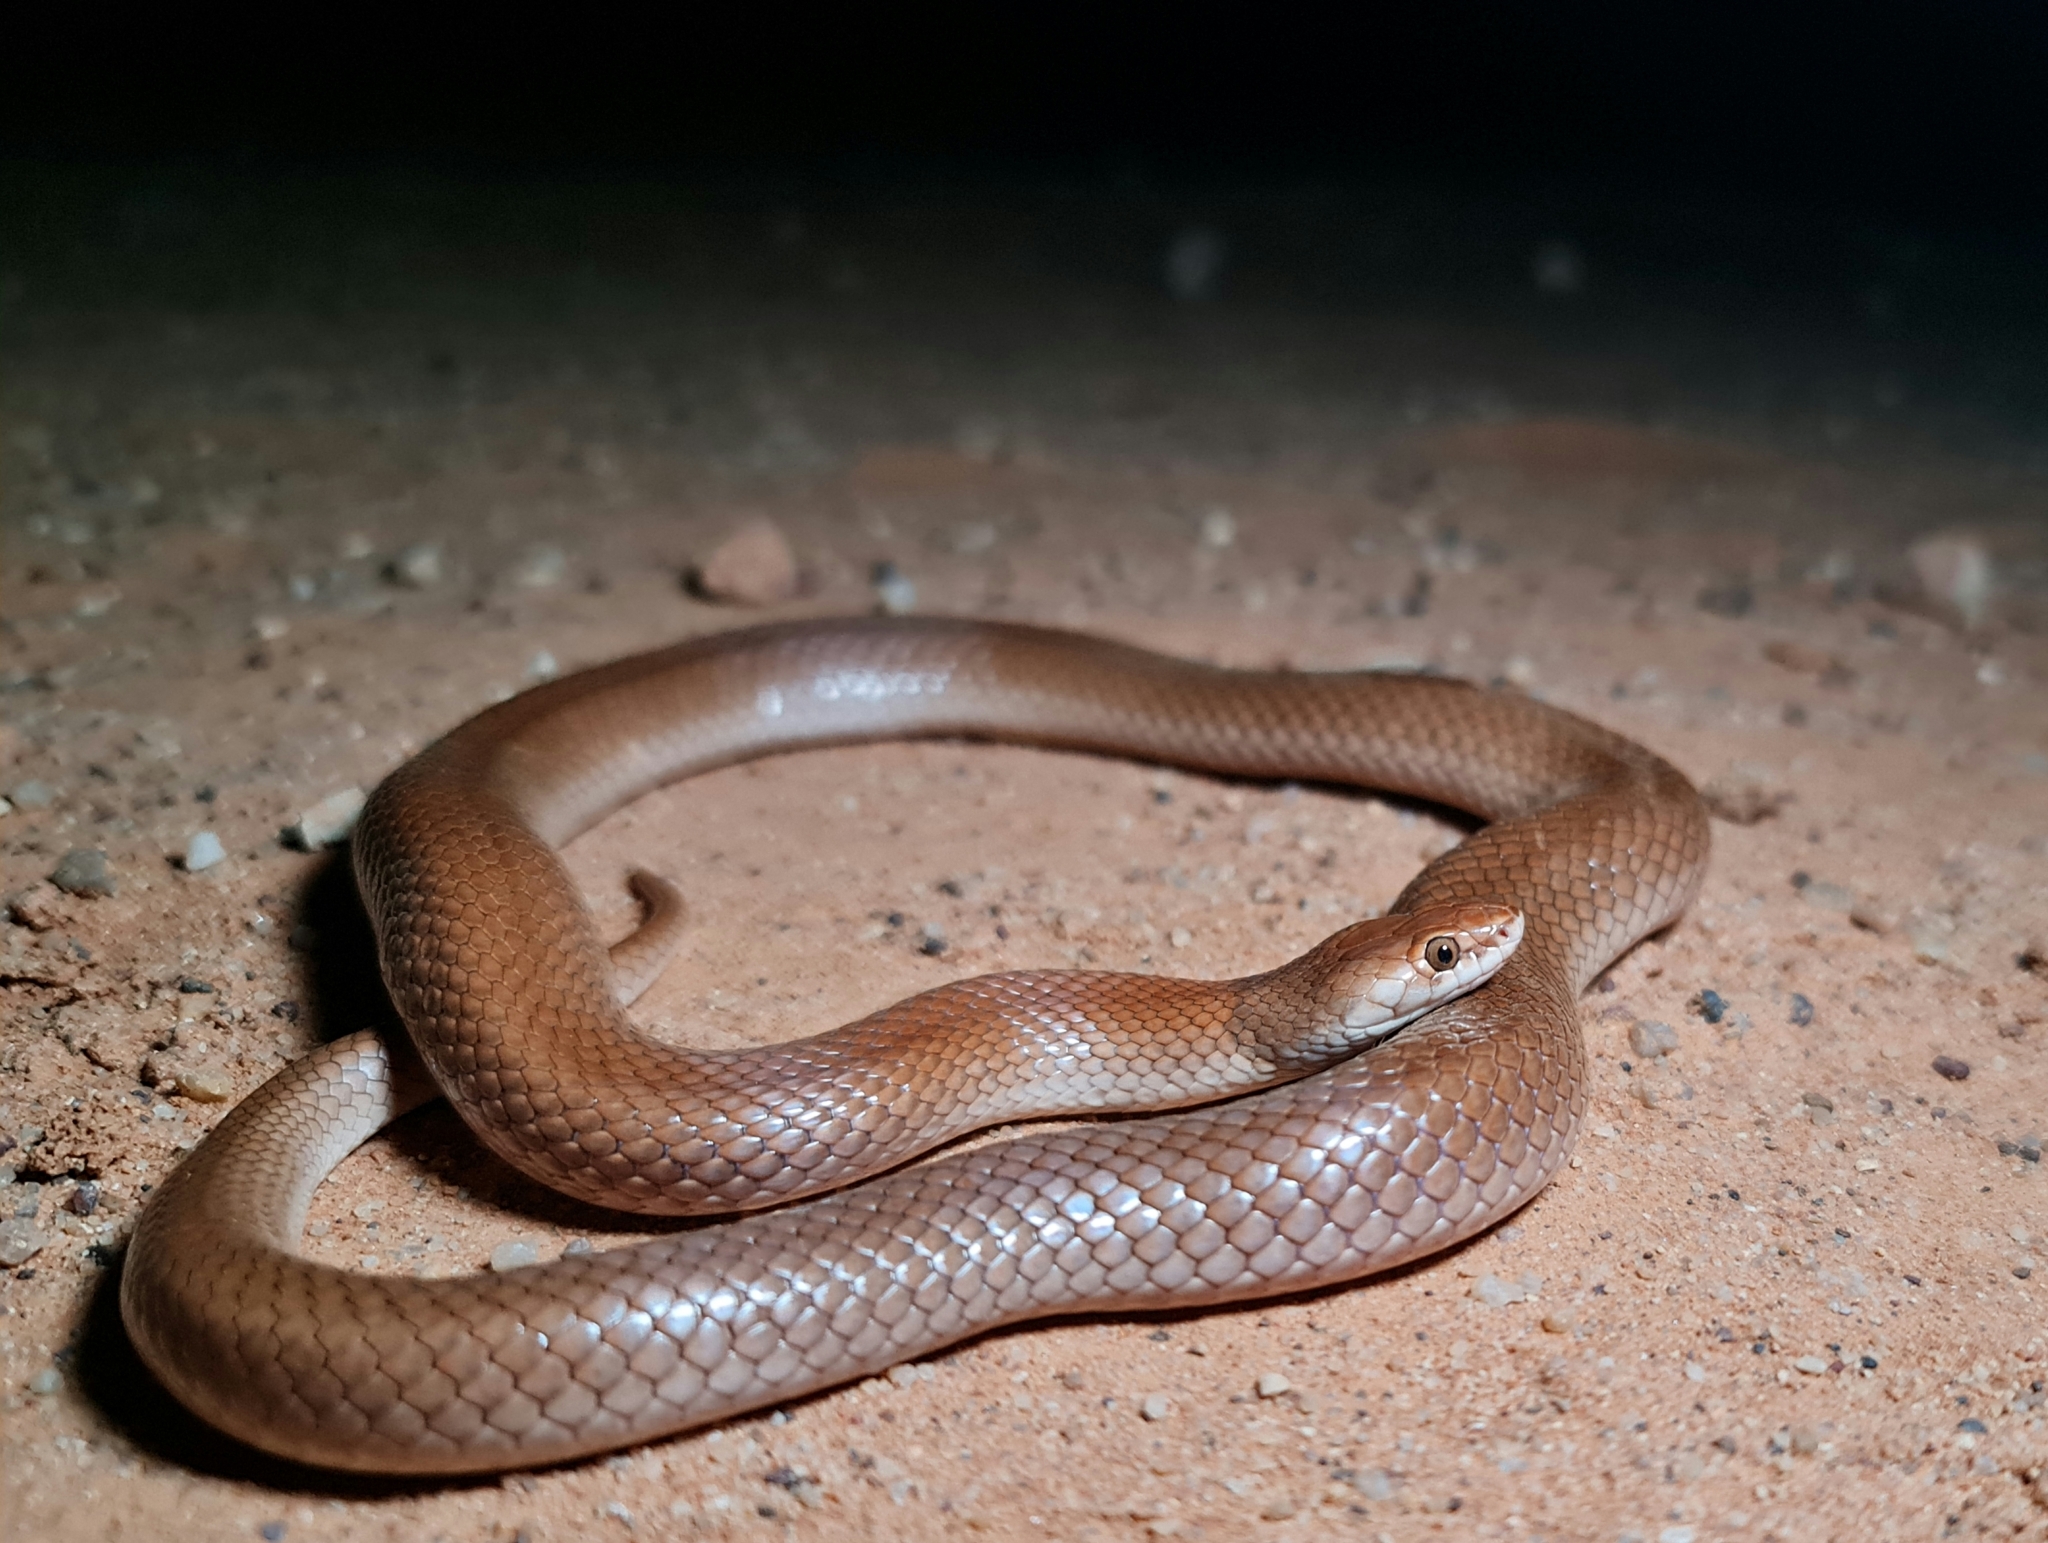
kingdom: Animalia
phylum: Chordata
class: Squamata
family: Elapidae
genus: Suta
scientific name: Suta suta
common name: Curl snake
